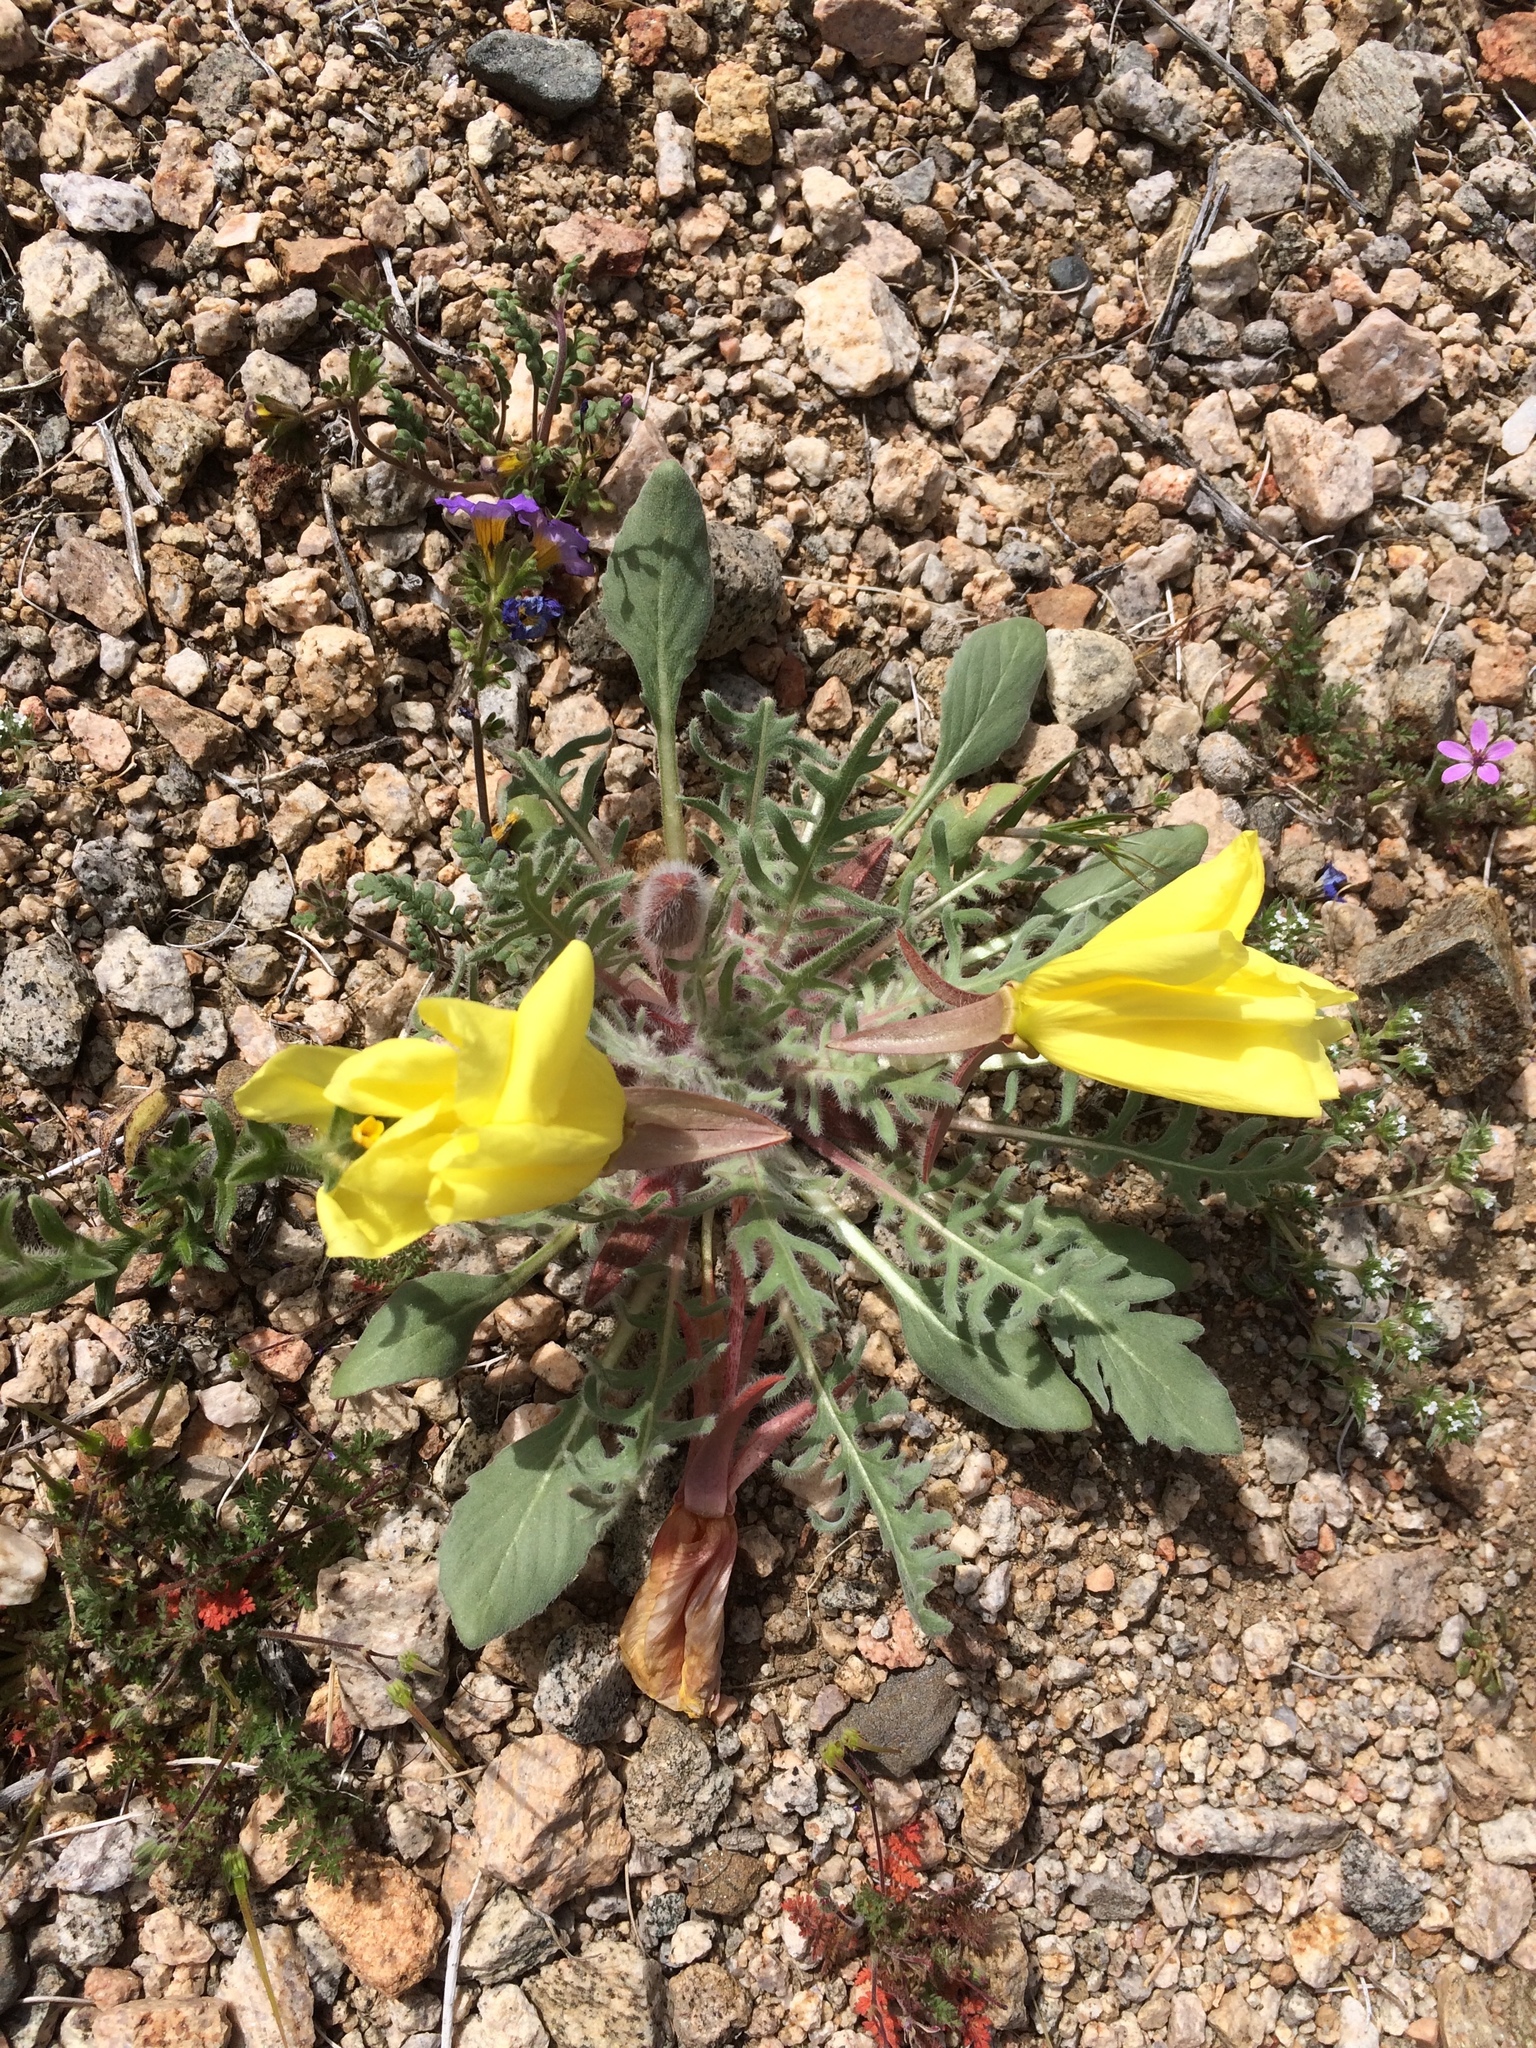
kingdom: Plantae
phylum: Tracheophyta
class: Magnoliopsida
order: Myrtales
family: Onagraceae
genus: Oenothera
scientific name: Oenothera primiveris
